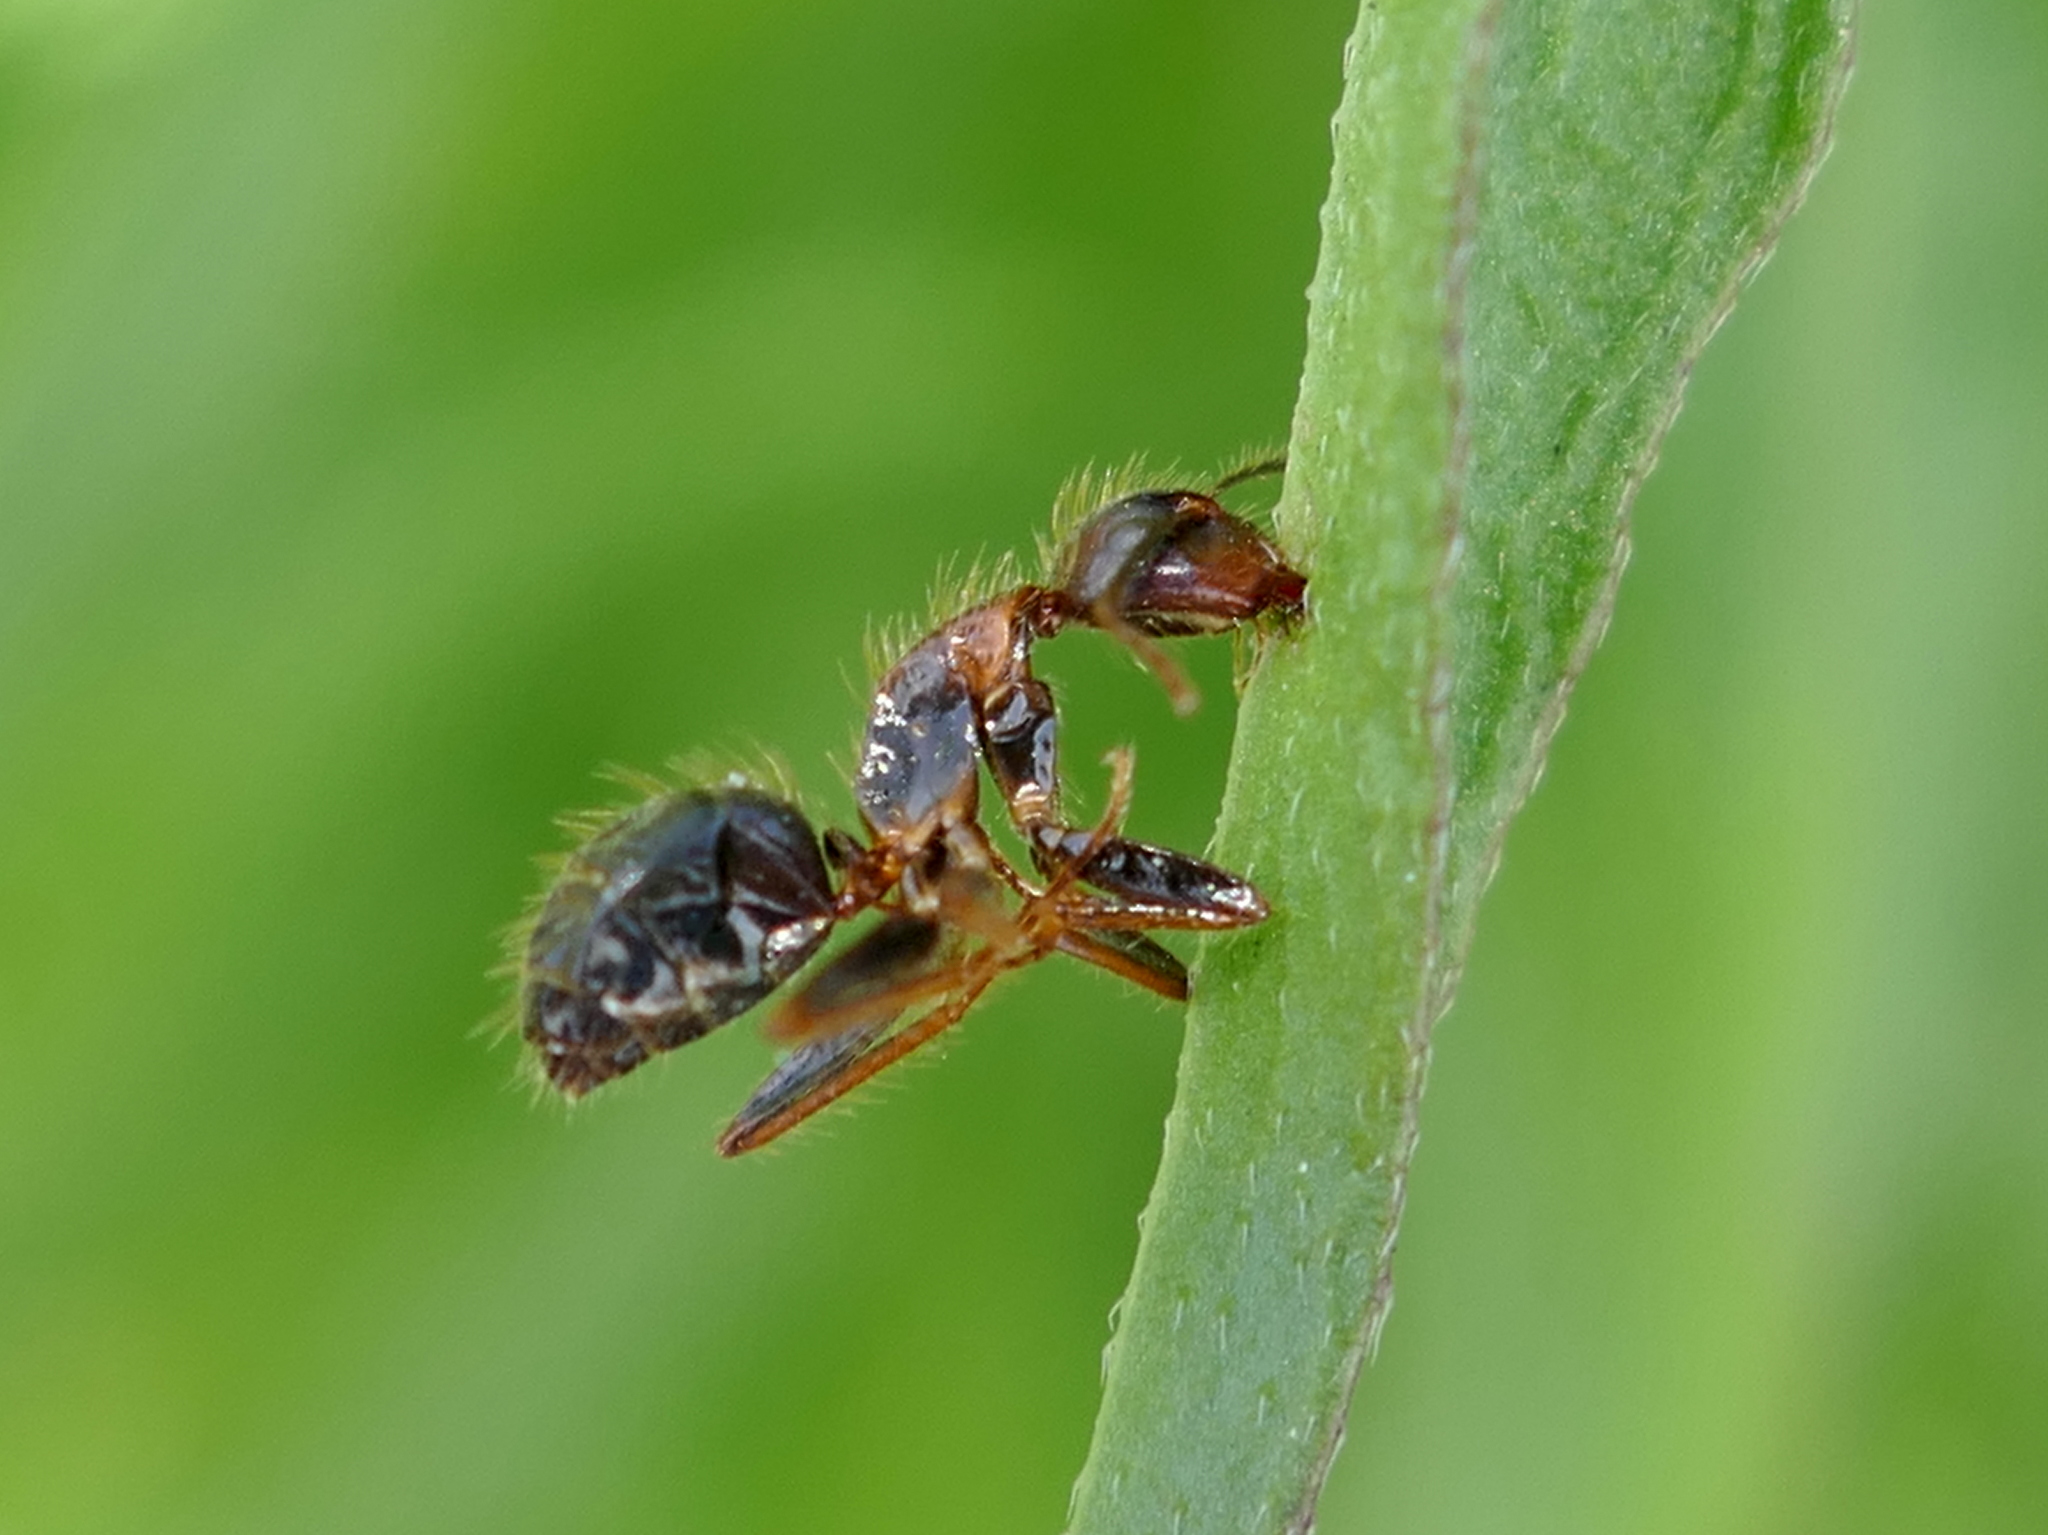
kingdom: Animalia
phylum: Arthropoda
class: Insecta
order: Hymenoptera
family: Formicidae
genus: Camponotus
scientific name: Camponotus floridanus
